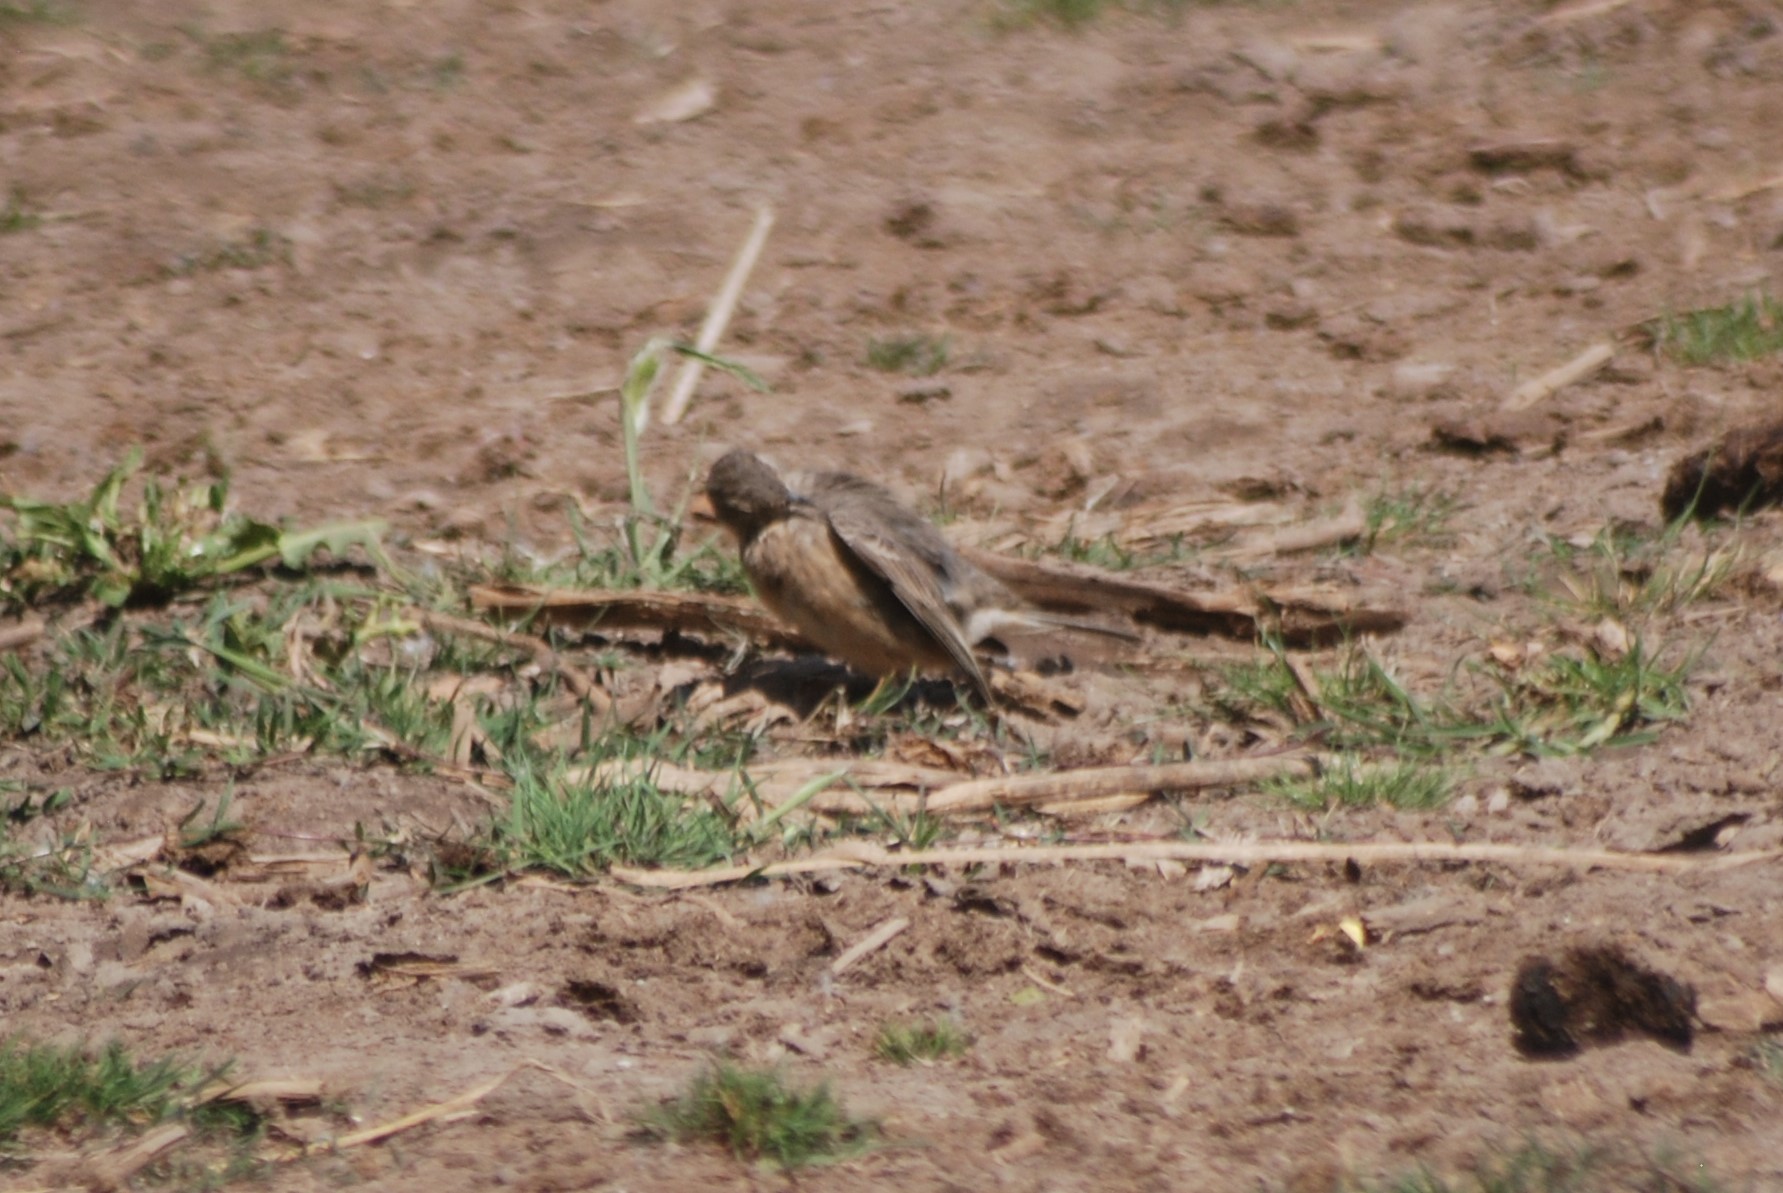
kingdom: Animalia
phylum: Chordata
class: Aves
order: Passeriformes
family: Motacillidae
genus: Anthus
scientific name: Anthus rubescens
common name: Buff-bellied pipit
